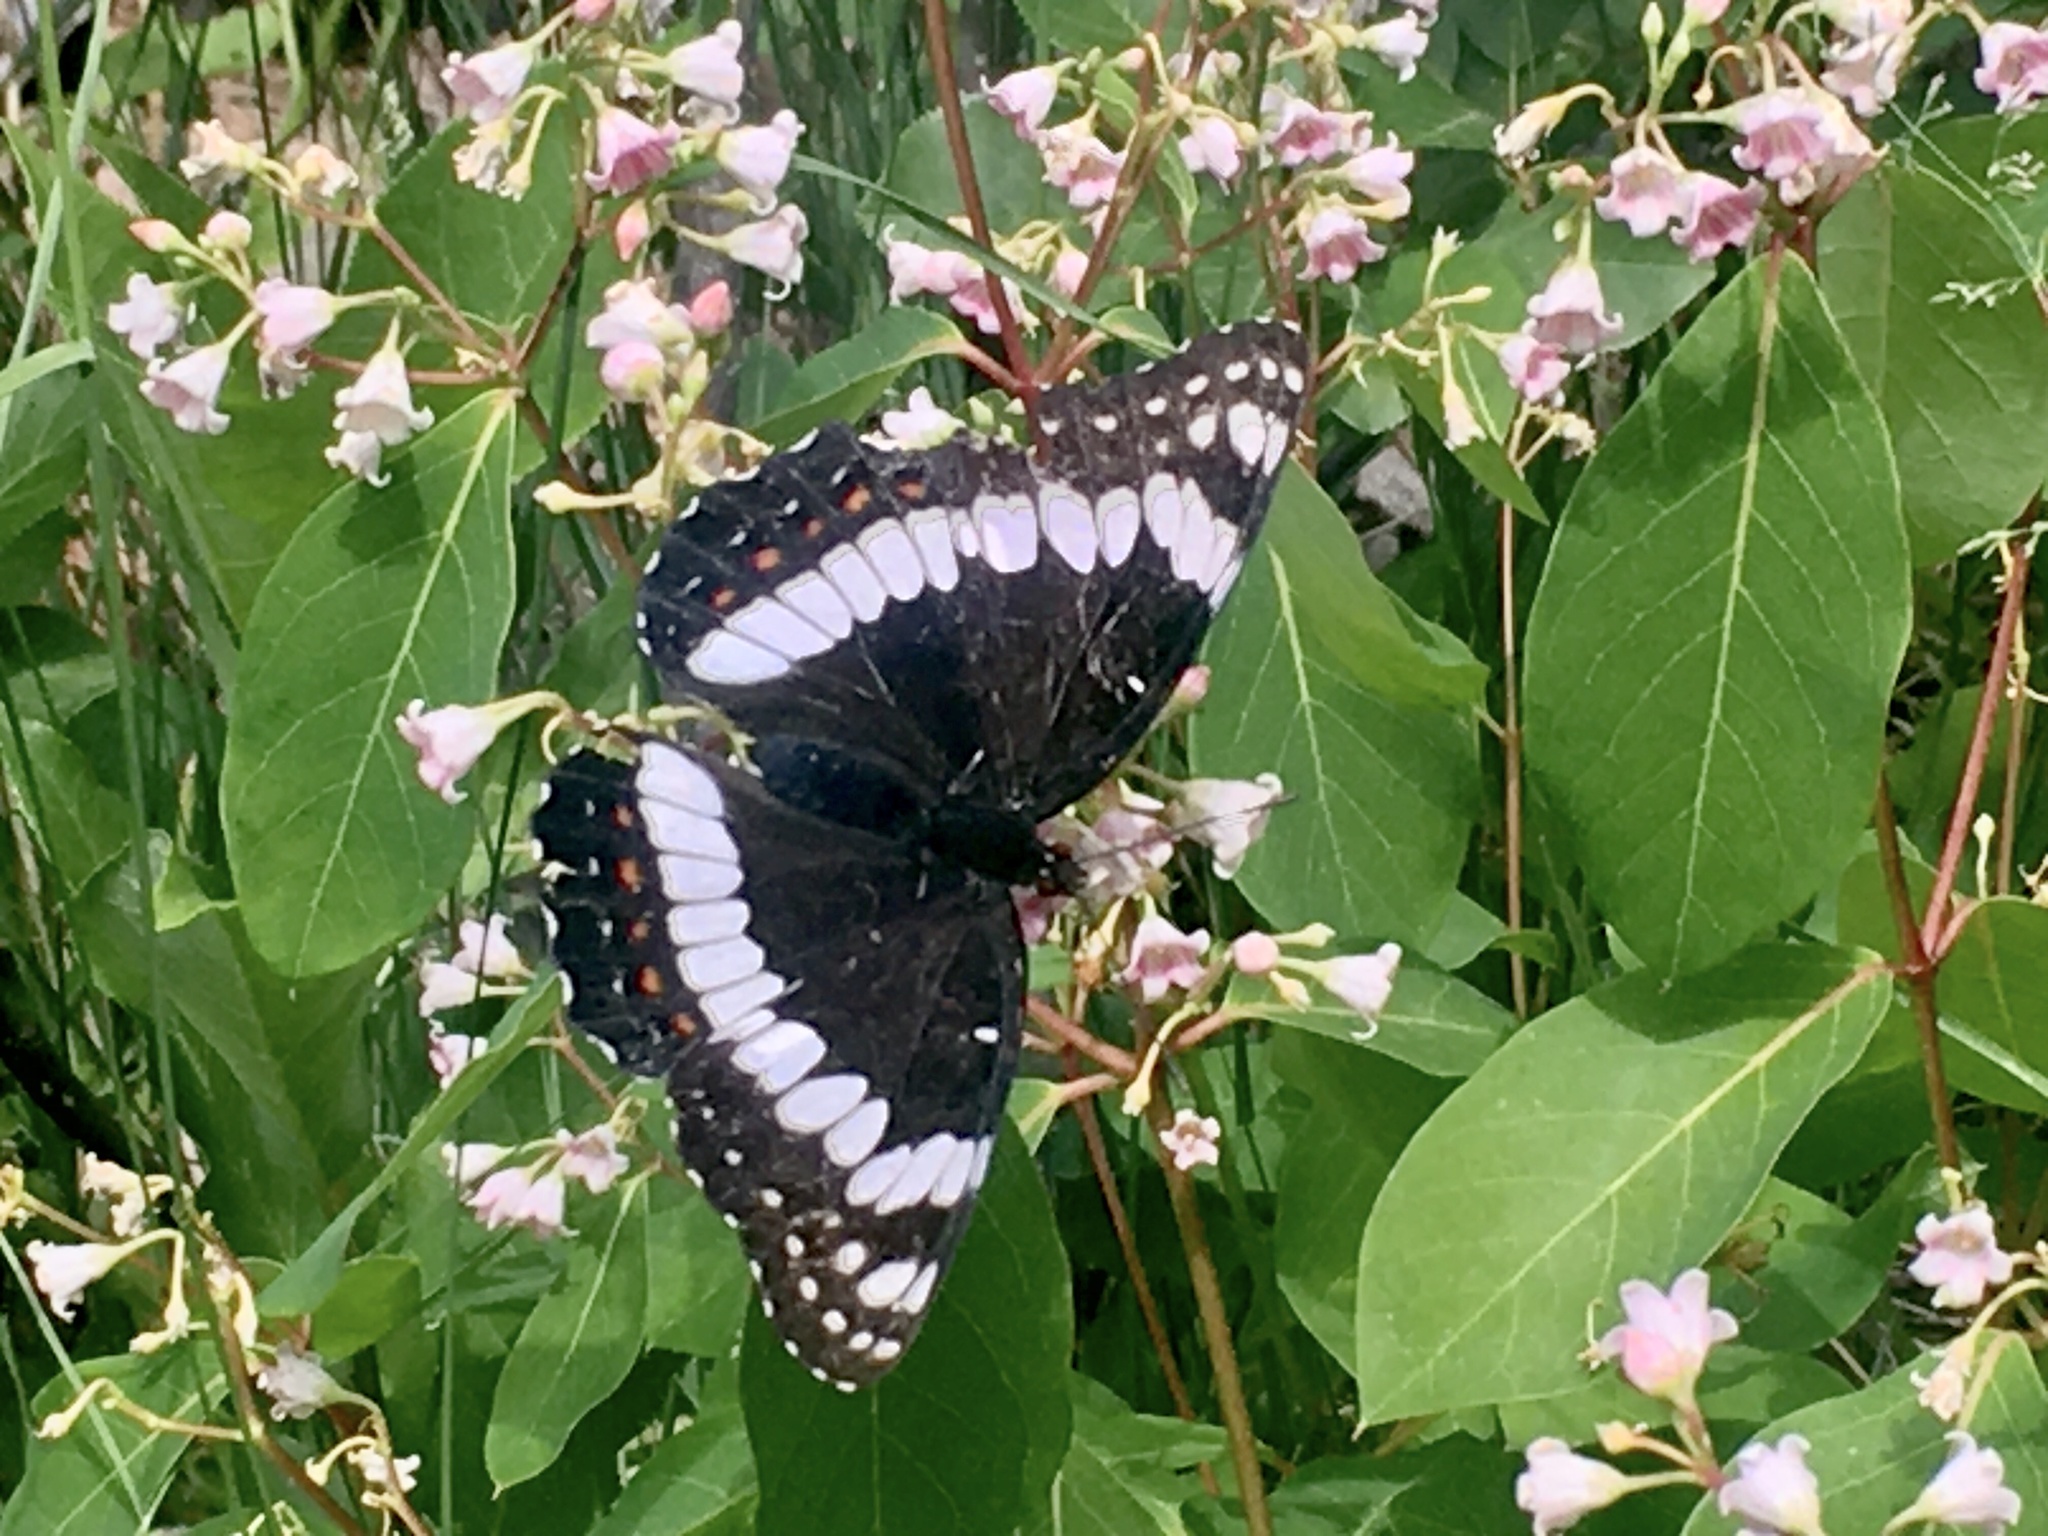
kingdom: Animalia
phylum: Arthropoda
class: Insecta
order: Lepidoptera
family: Nymphalidae
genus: Limenitis
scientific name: Limenitis weidemeyerii
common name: Weidemeyer's admiral
